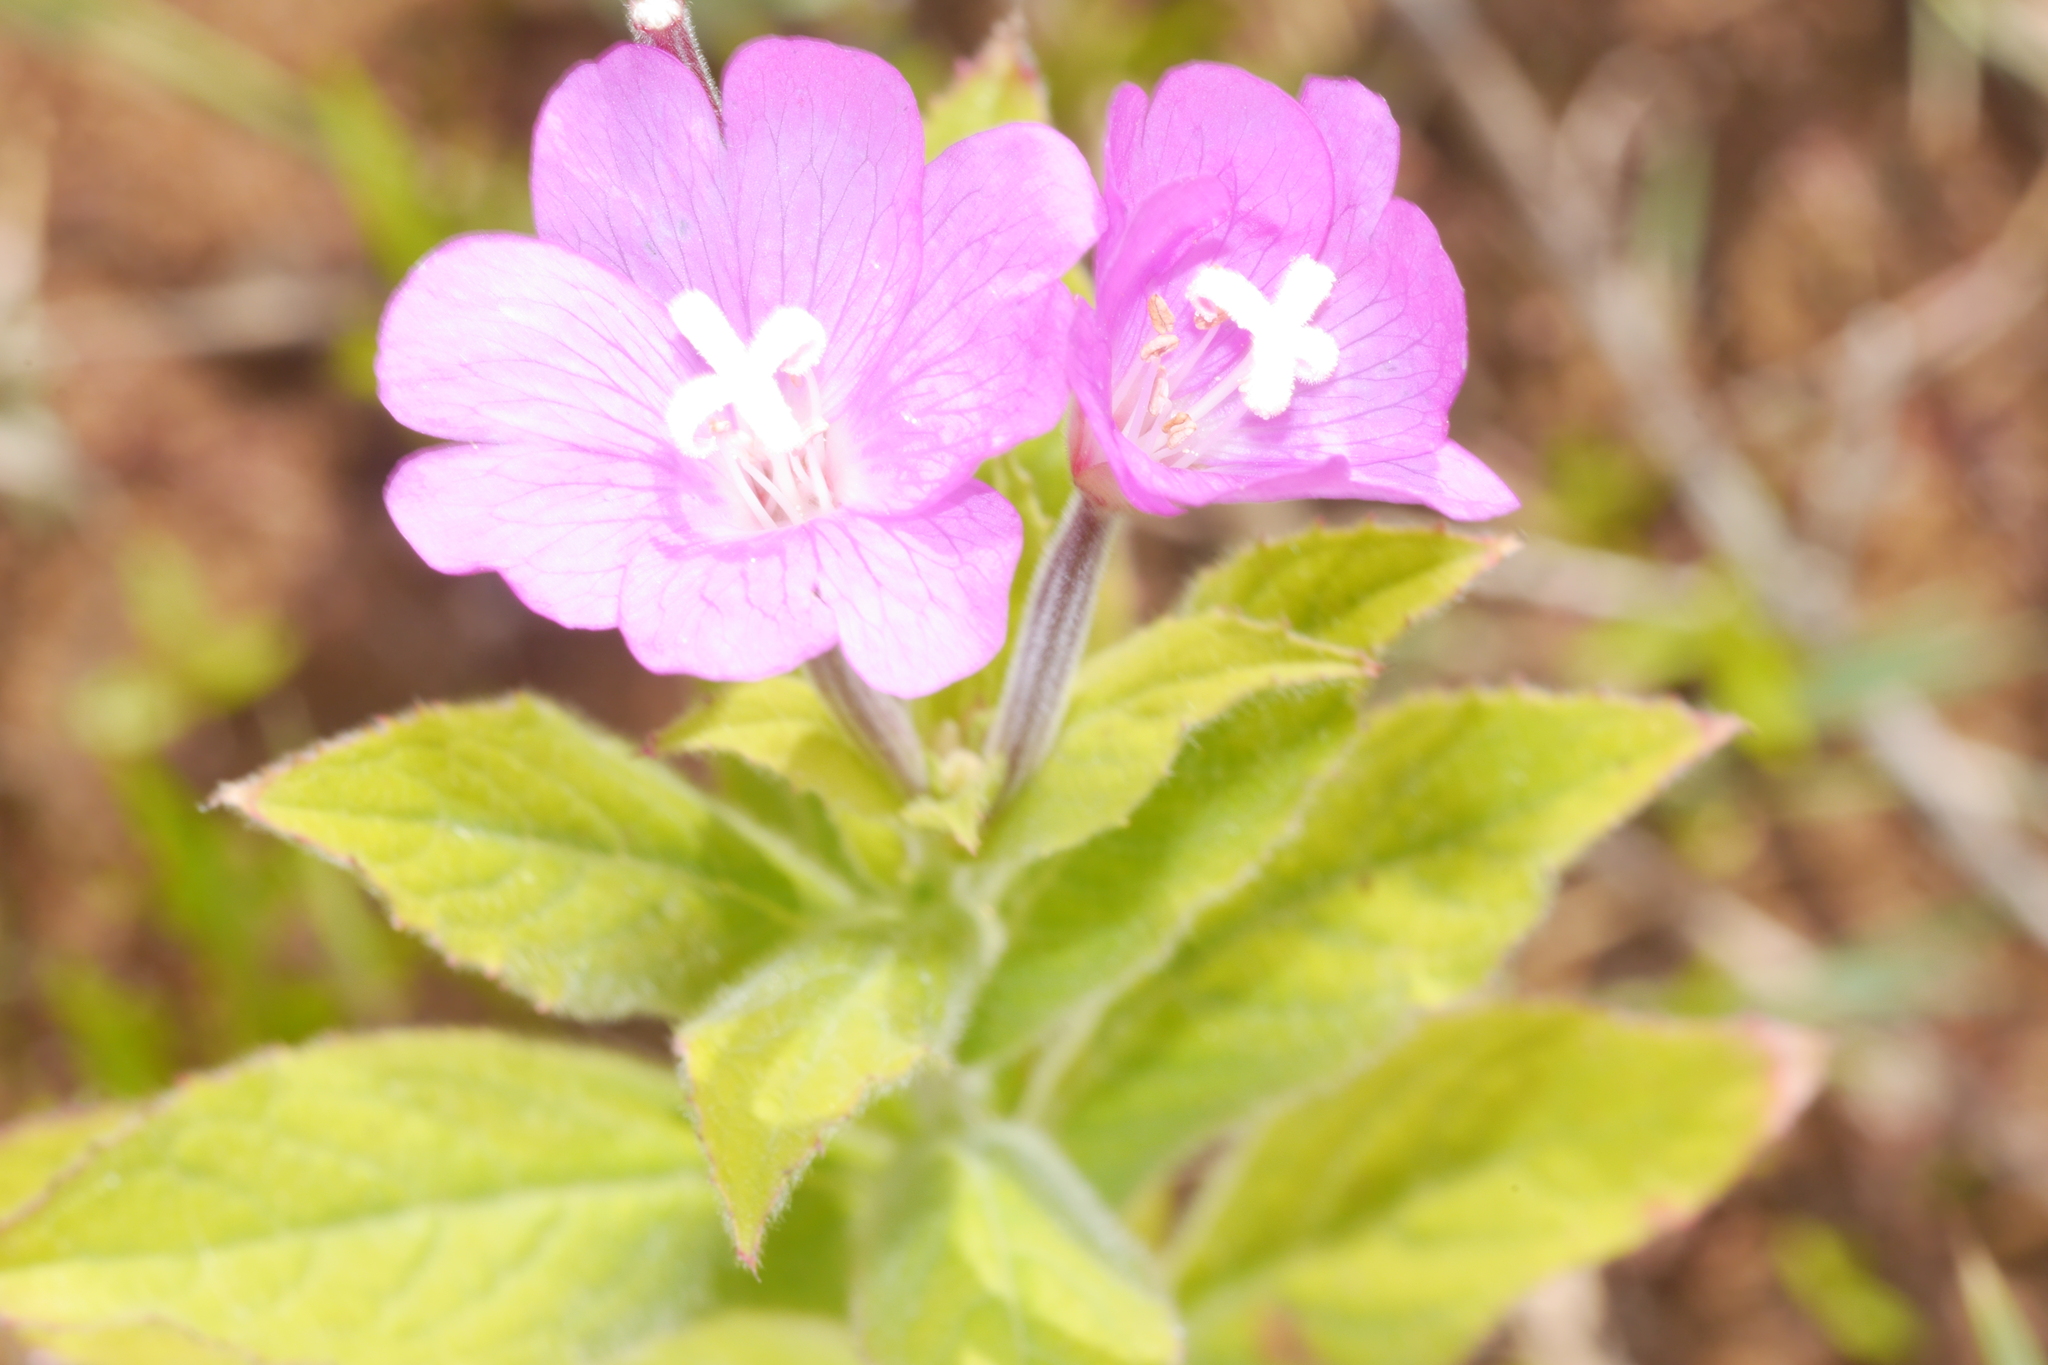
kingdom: Plantae
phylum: Tracheophyta
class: Magnoliopsida
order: Myrtales
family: Onagraceae
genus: Epilobium
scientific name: Epilobium hirsutum
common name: Great willowherb
